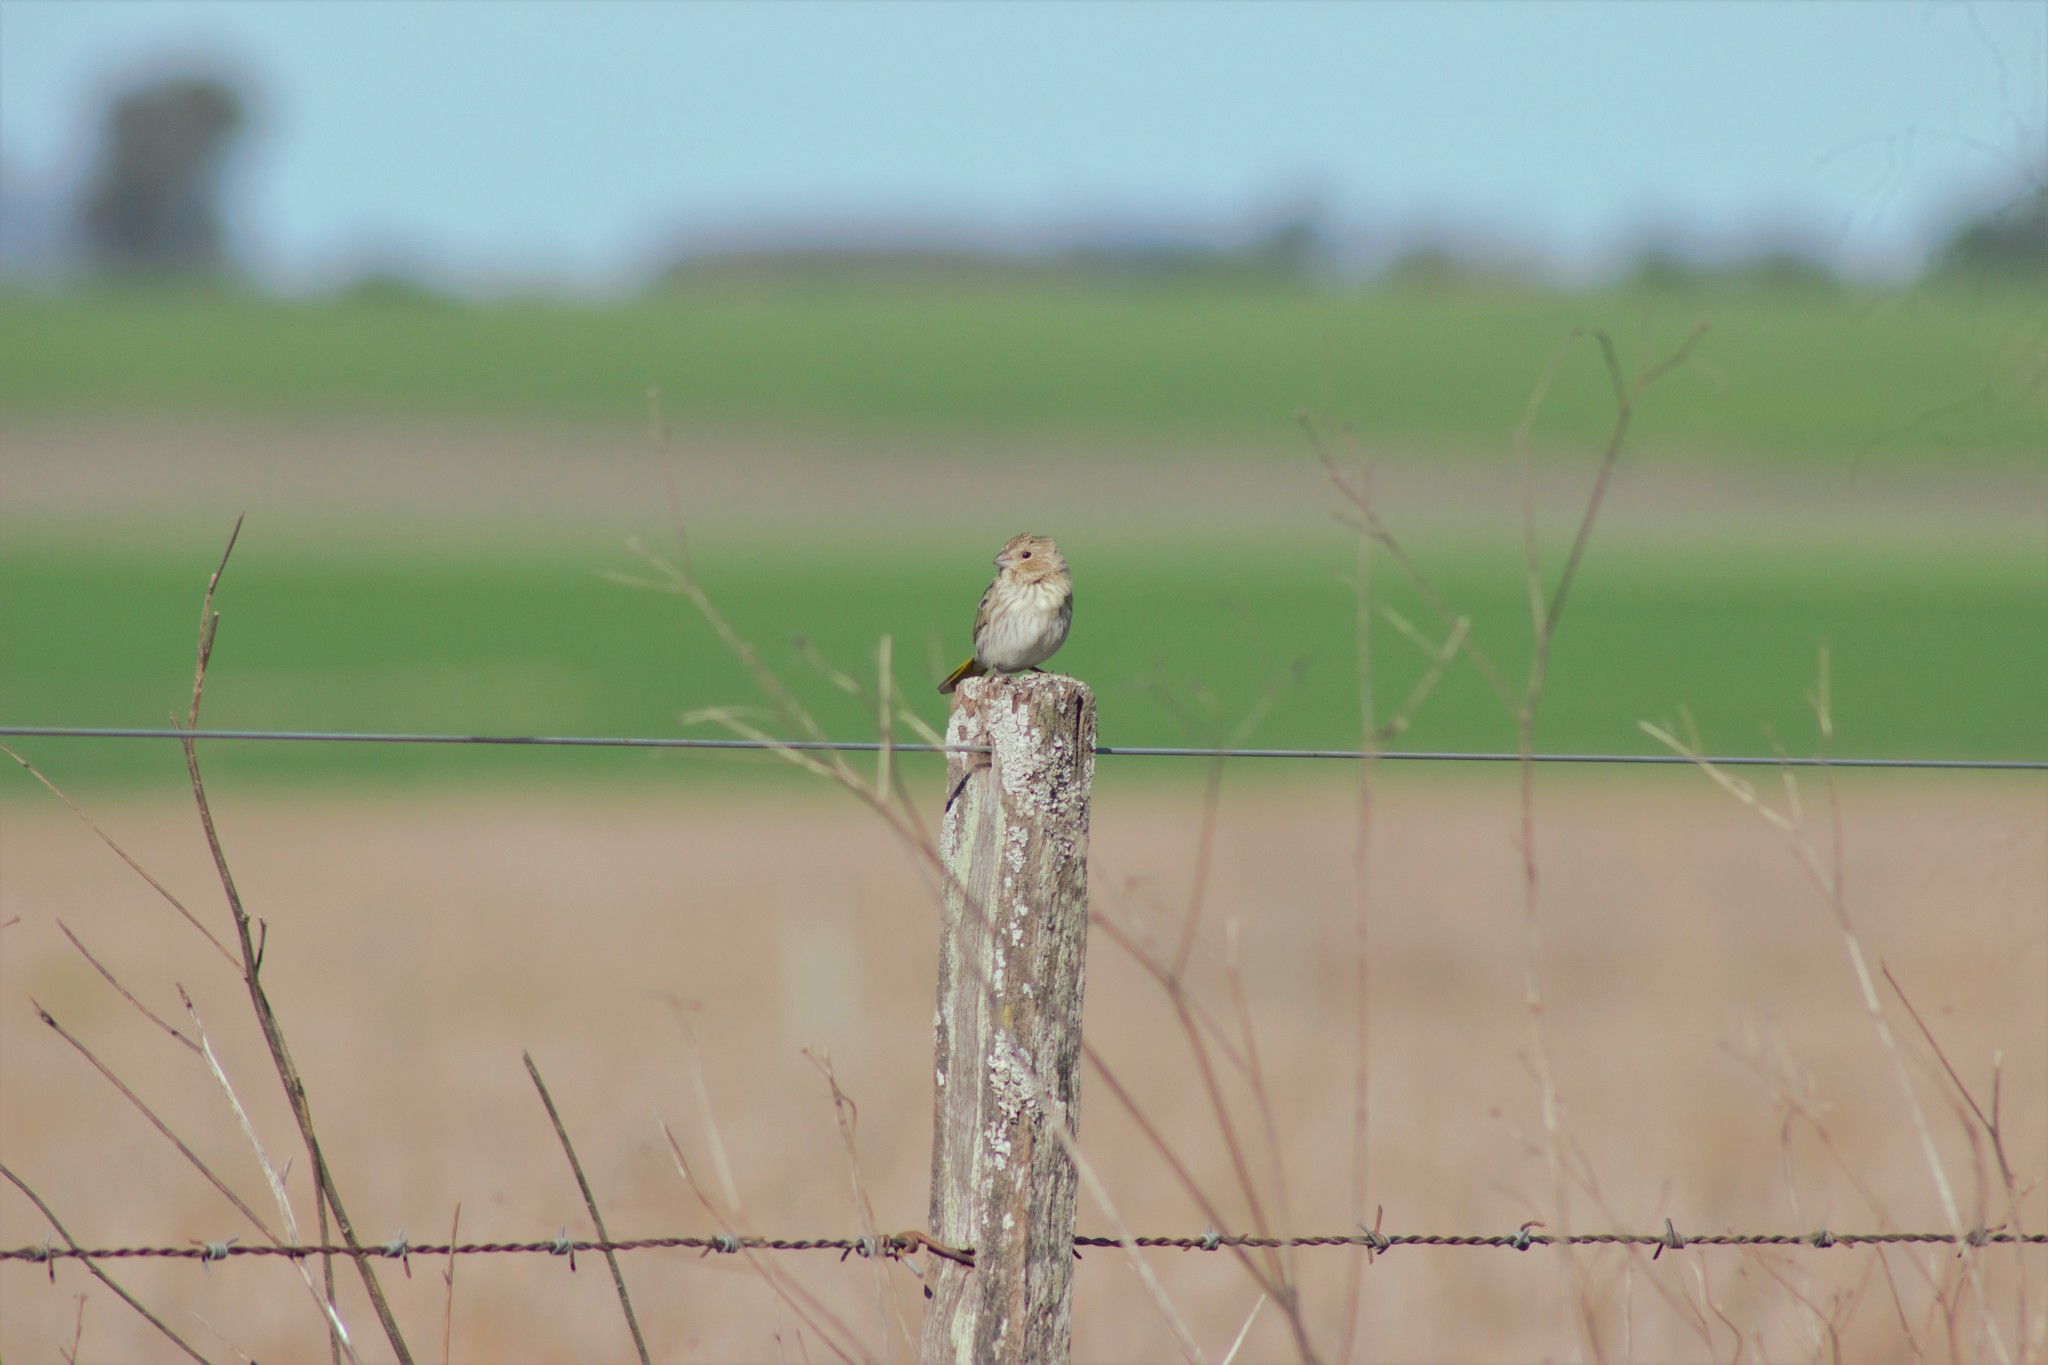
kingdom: Animalia
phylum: Chordata
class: Aves
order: Passeriformes
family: Thraupidae
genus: Sicalis
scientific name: Sicalis flaveola
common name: Saffron finch
